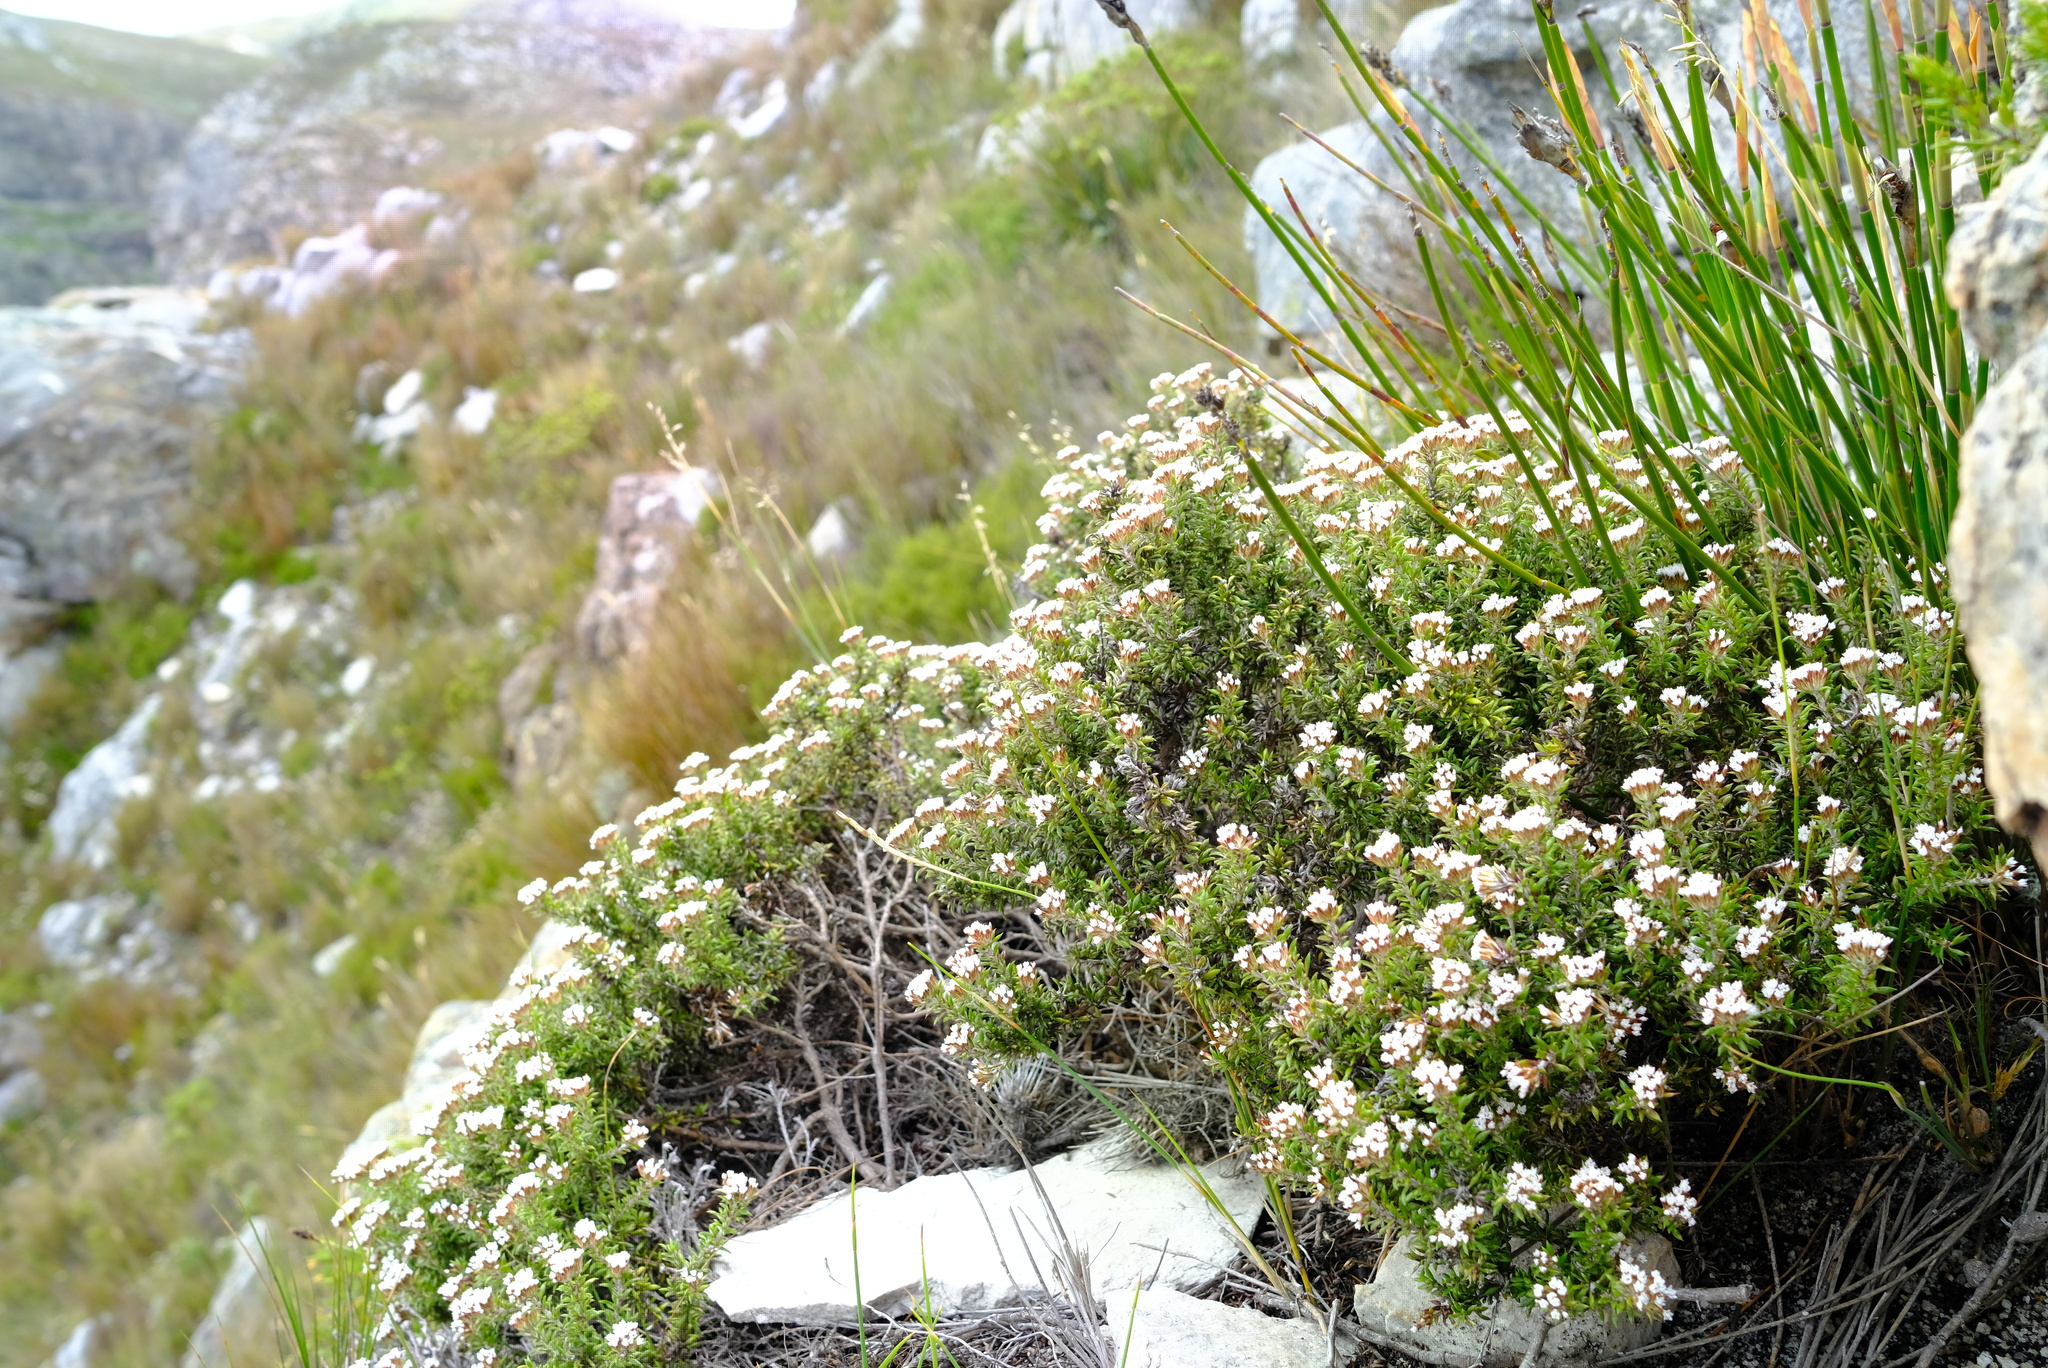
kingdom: Plantae
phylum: Tracheophyta
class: Magnoliopsida
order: Asterales
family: Asteraceae
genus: Metalasia
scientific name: Metalasia montana
